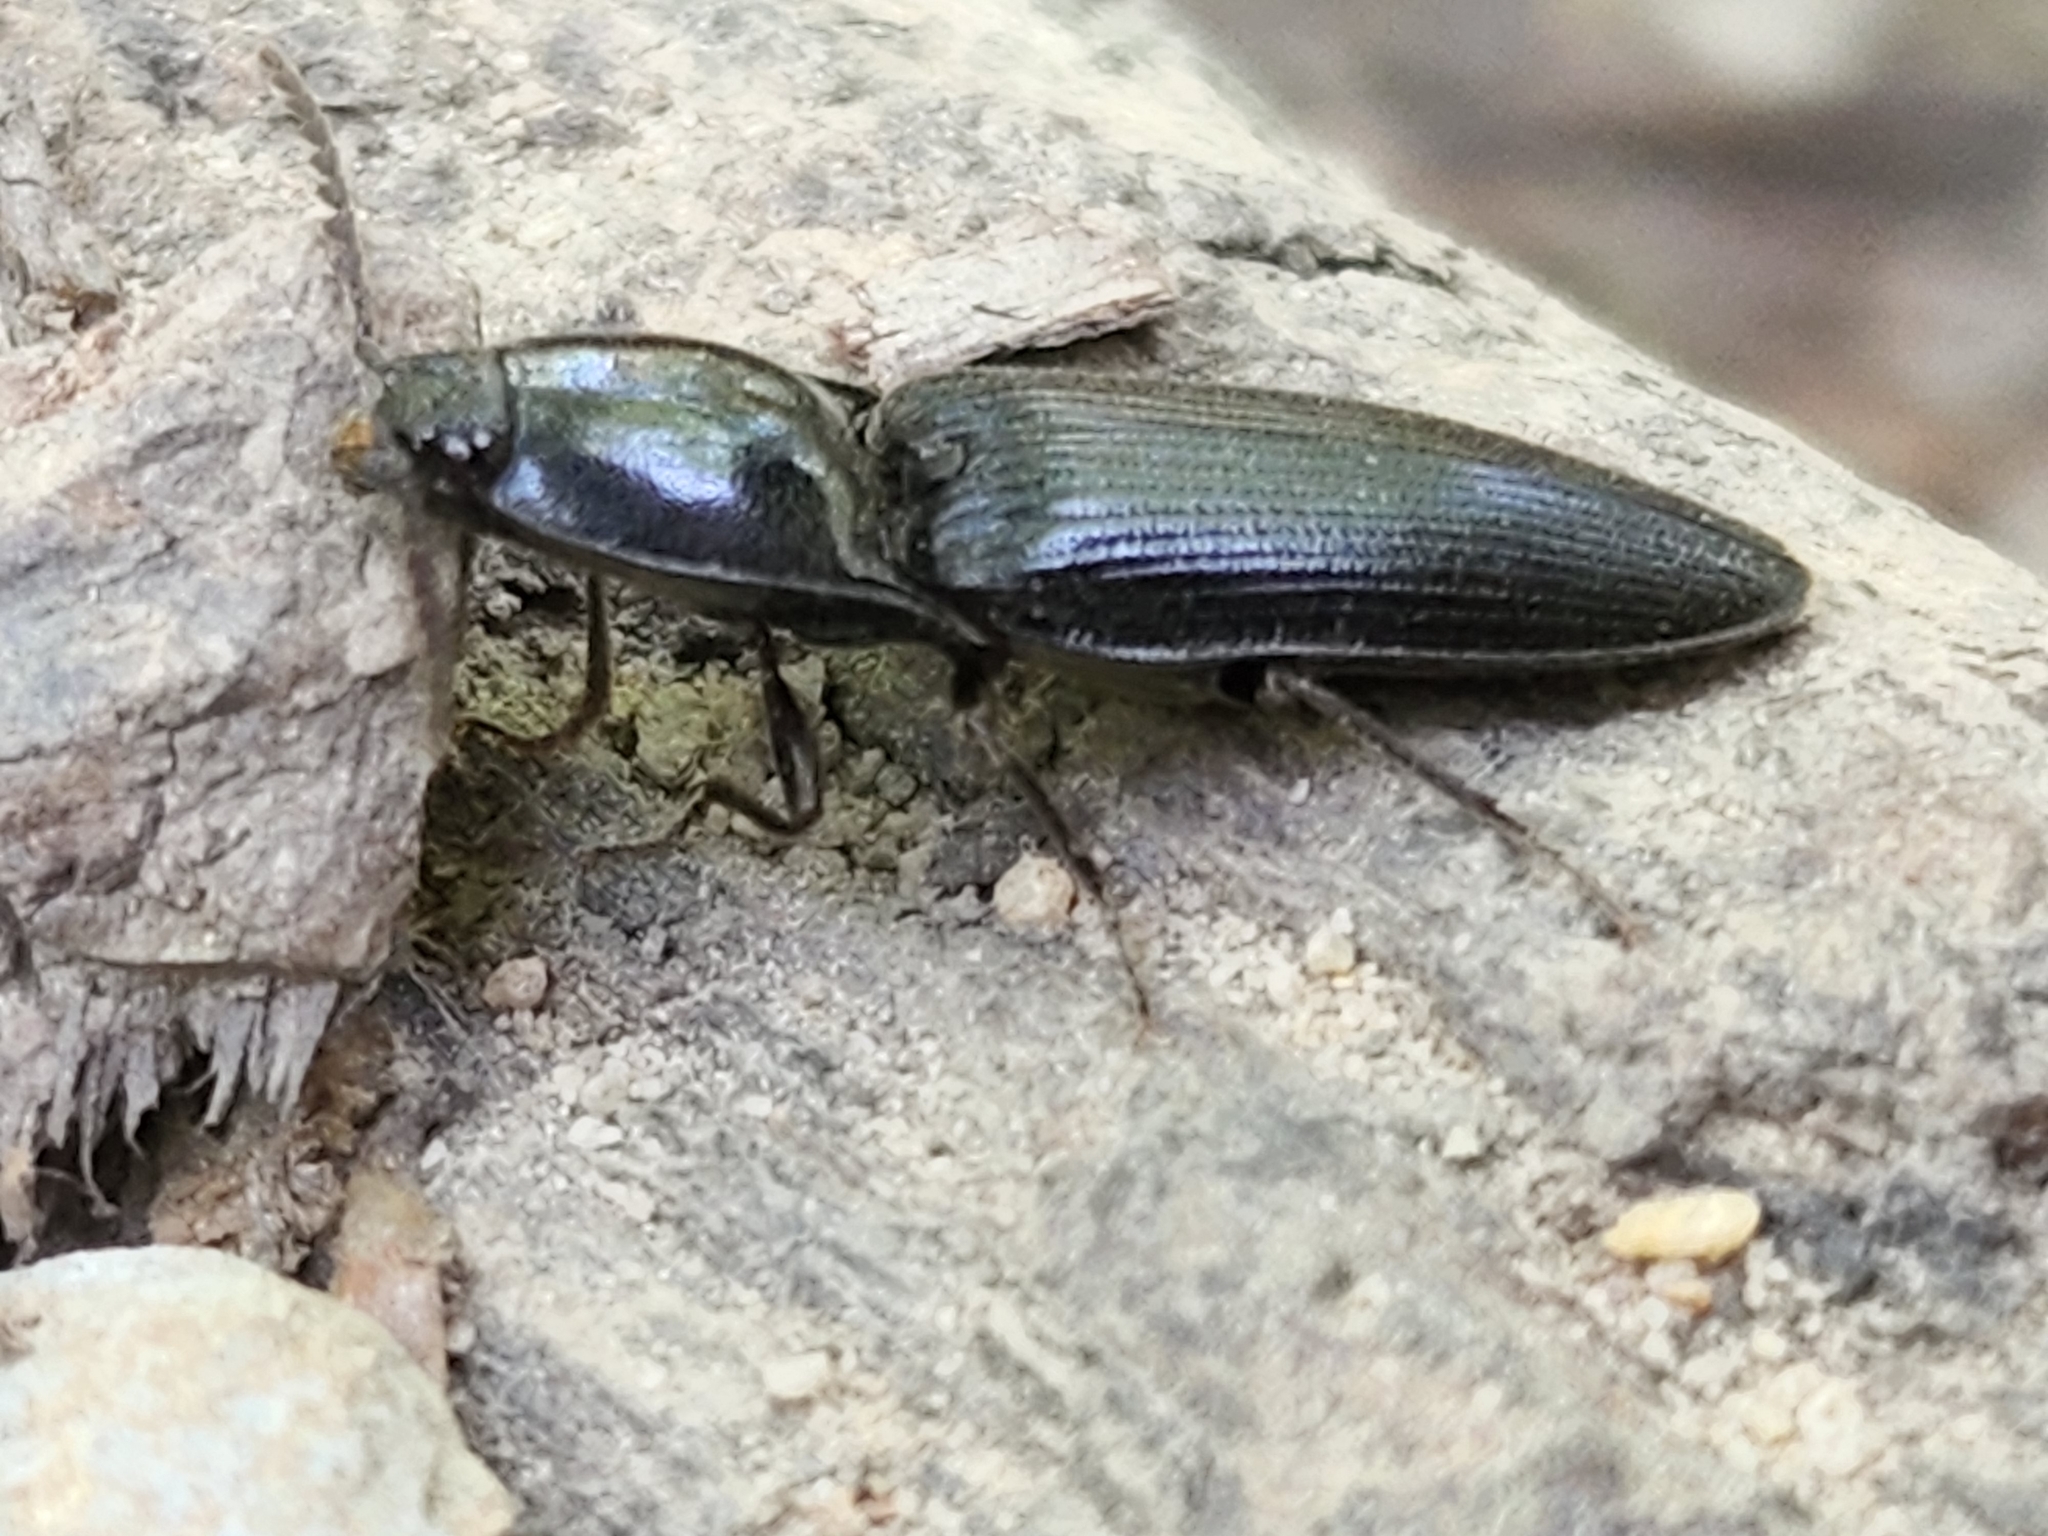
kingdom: Animalia
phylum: Arthropoda
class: Insecta
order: Coleoptera
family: Elateridae
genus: Neopristilophus
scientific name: Neopristilophus
